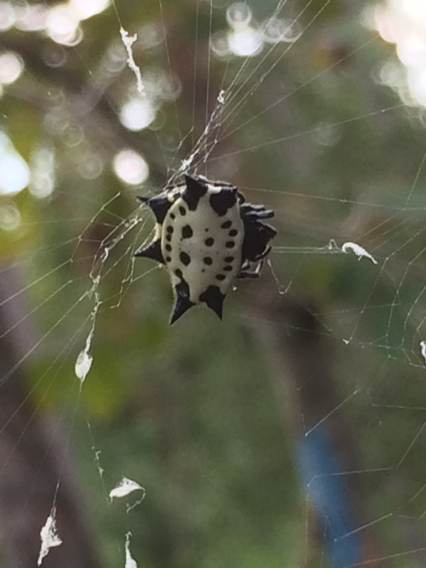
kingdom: Animalia
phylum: Arthropoda
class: Arachnida
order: Araneae
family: Araneidae
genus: Gasteracantha
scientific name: Gasteracantha cancriformis
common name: Orb weavers
